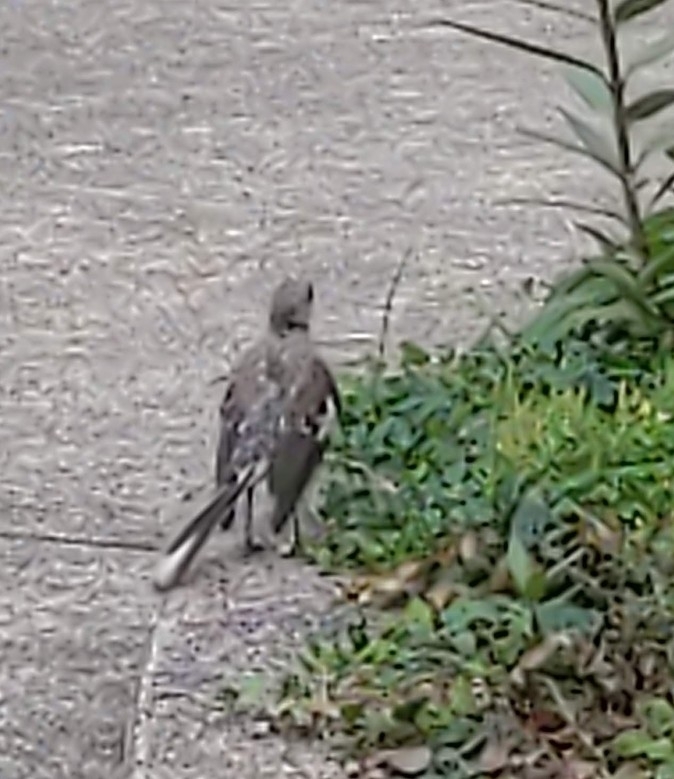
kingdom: Animalia
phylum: Chordata
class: Aves
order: Passeriformes
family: Mimidae
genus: Mimus
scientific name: Mimus polyglottos
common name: Northern mockingbird
